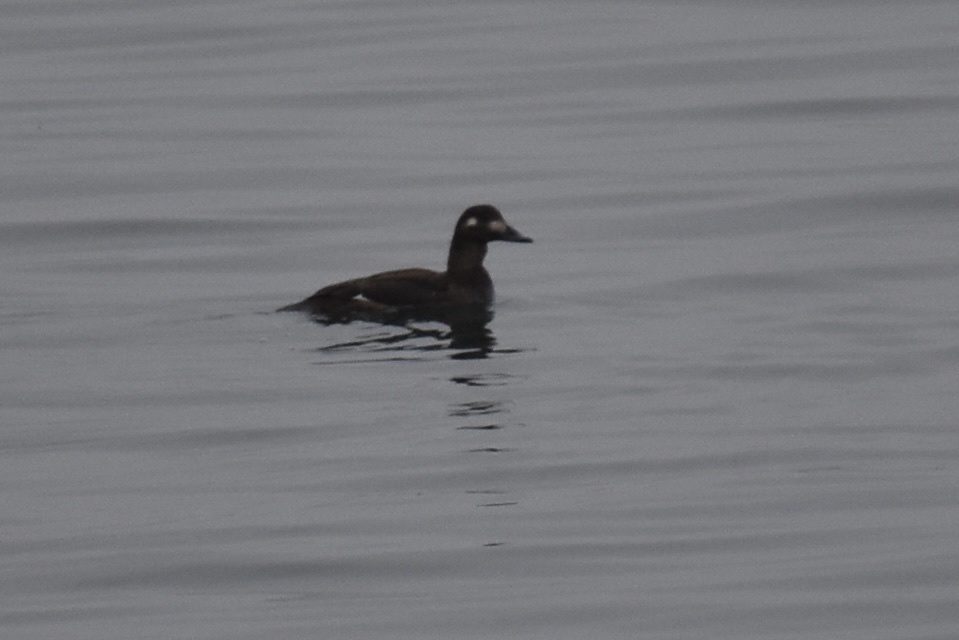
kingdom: Animalia
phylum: Chordata
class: Aves
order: Anseriformes
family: Anatidae
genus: Melanitta
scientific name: Melanitta deglandi
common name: White-winged scoter
